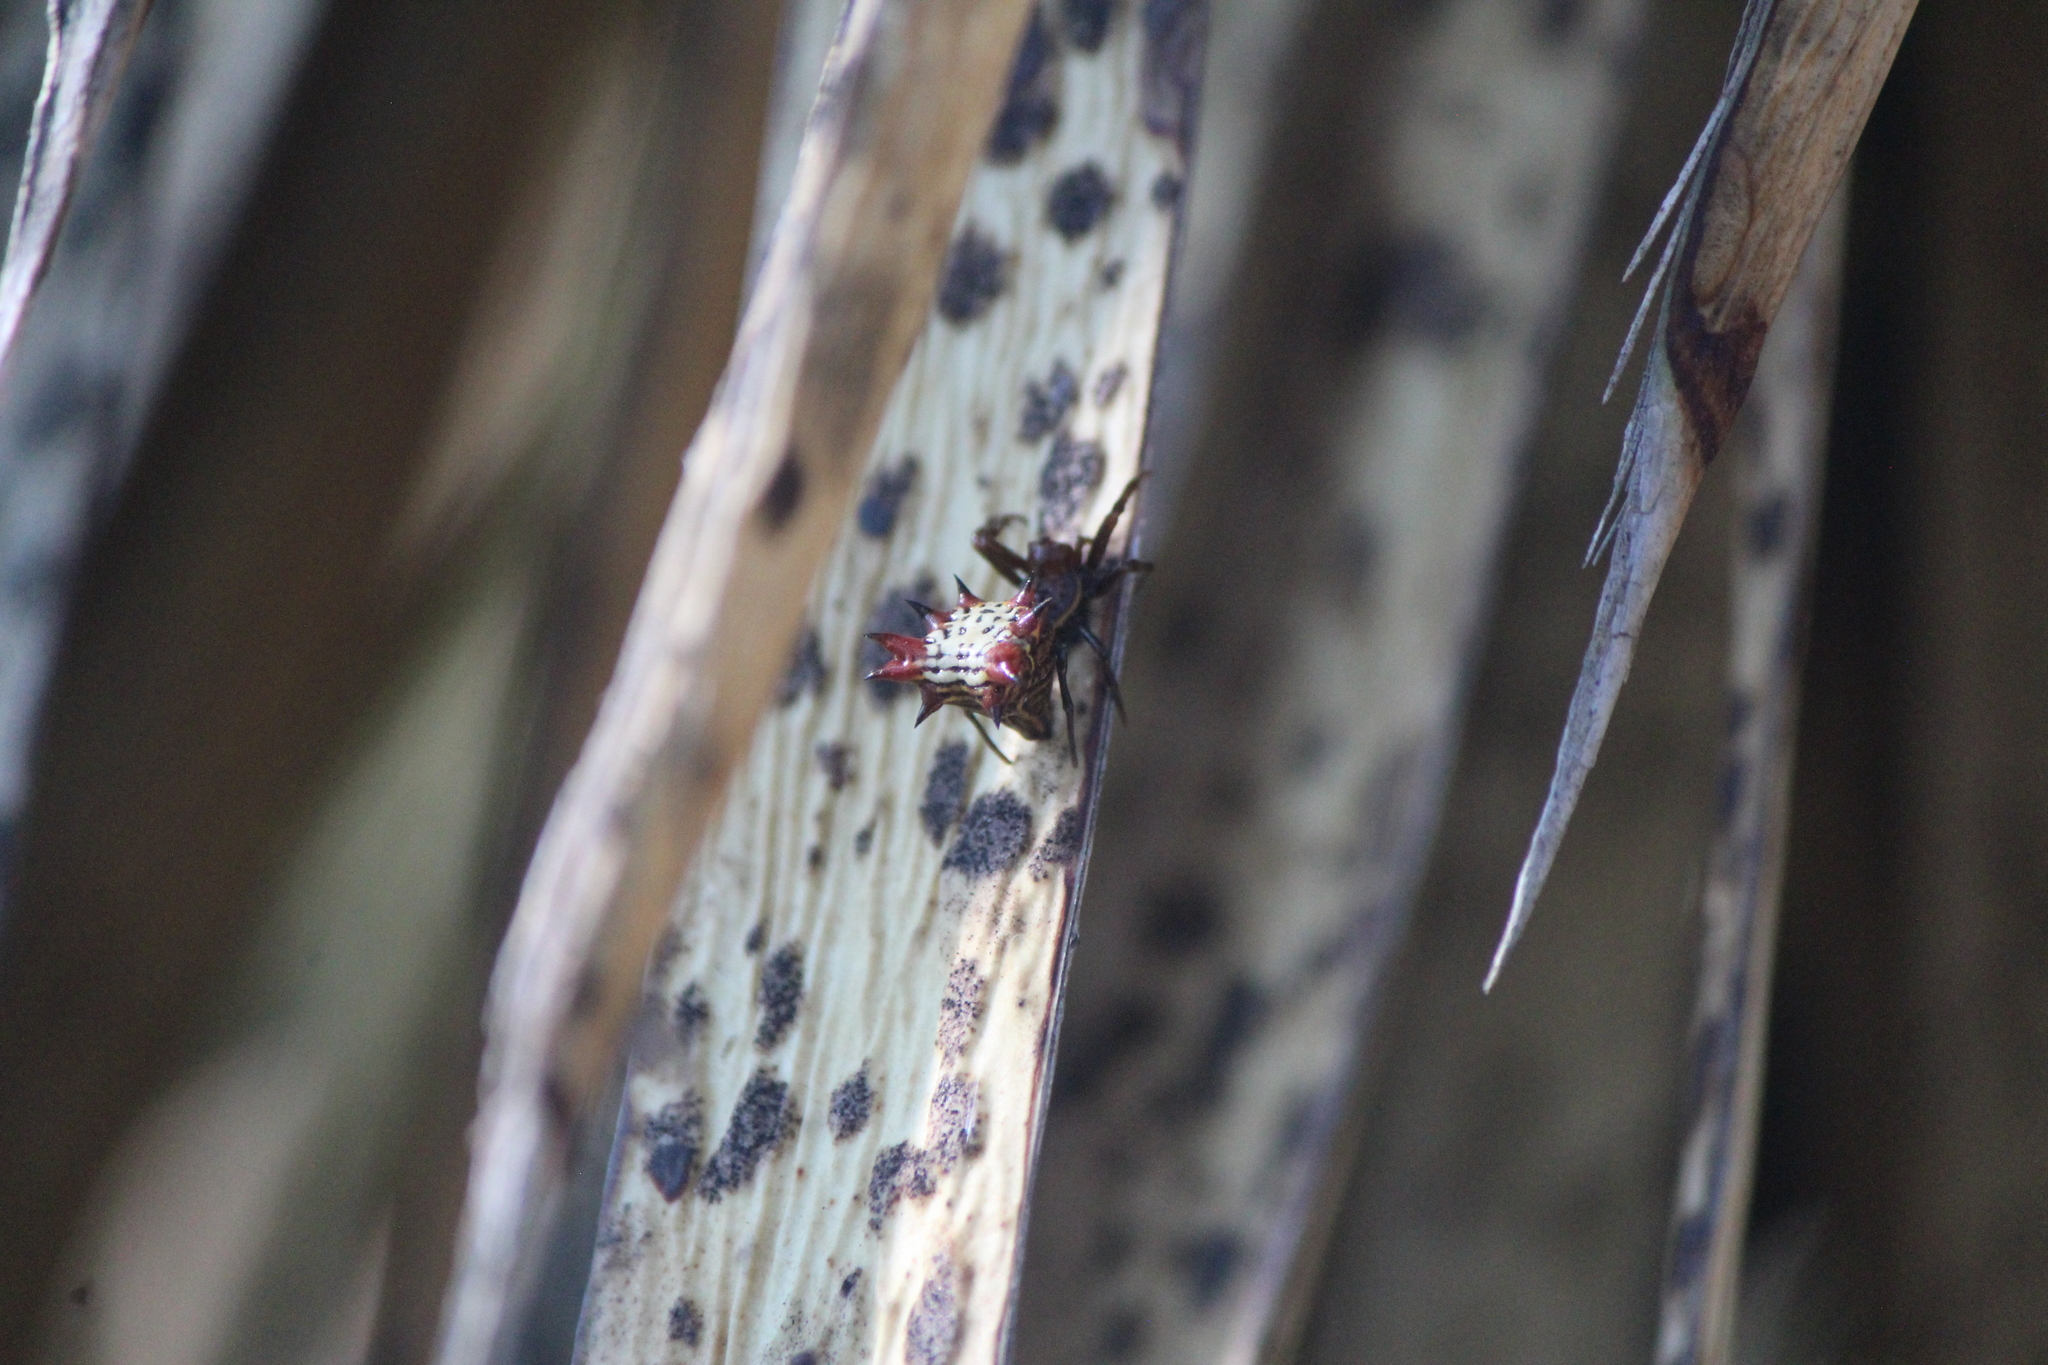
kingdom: Animalia
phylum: Arthropoda
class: Arachnida
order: Araneae
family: Araneidae
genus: Micrathena
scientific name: Micrathena gracilis
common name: Orb weavers
